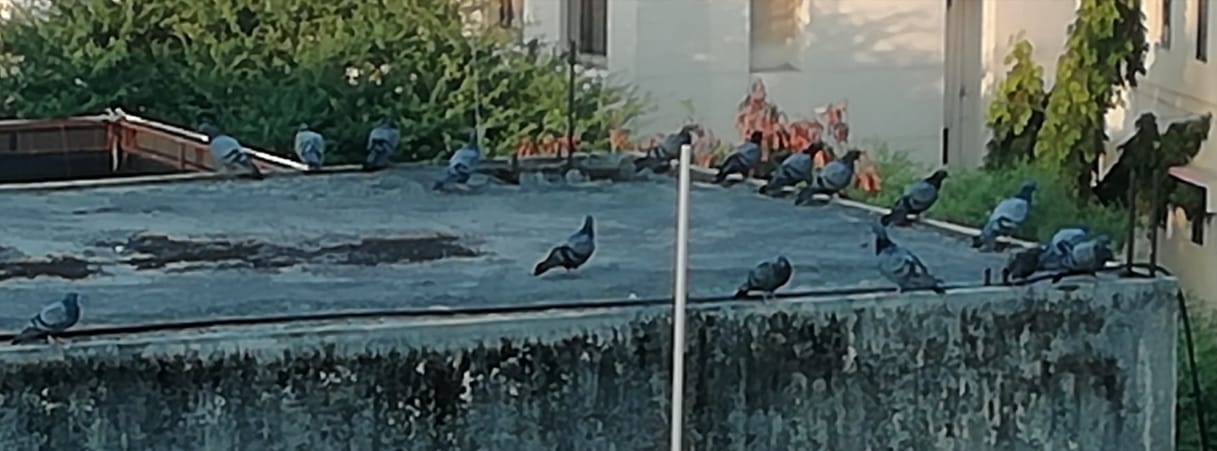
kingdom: Animalia
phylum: Chordata
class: Aves
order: Columbiformes
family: Columbidae
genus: Columba
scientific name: Columba livia
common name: Rock pigeon
